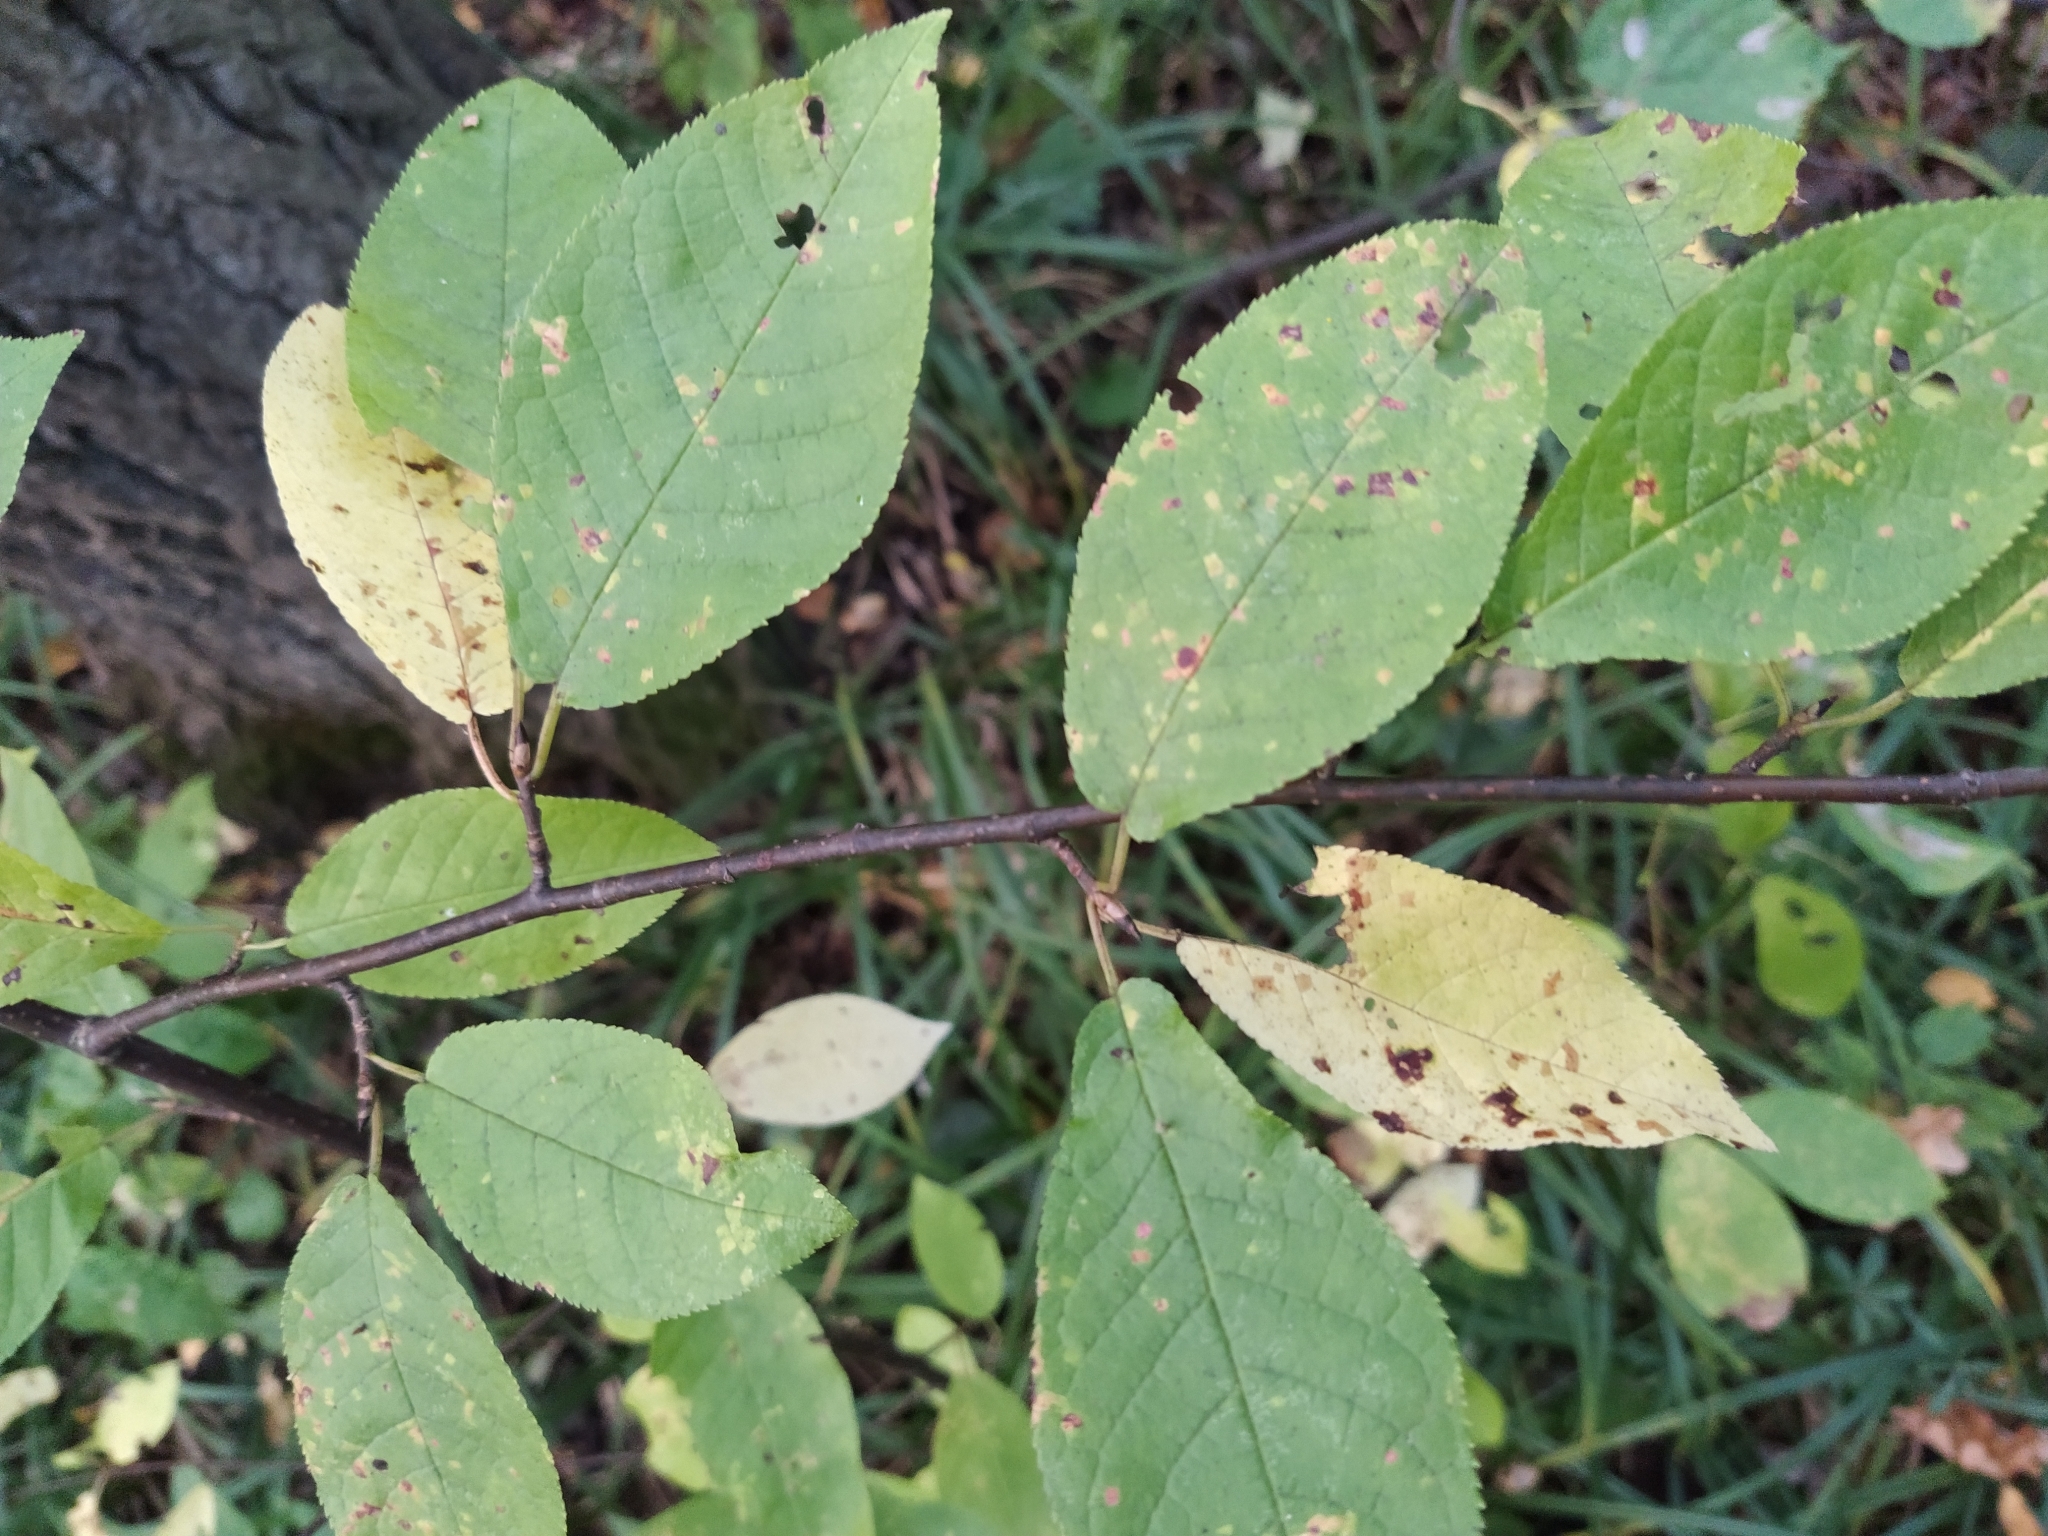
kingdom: Plantae
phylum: Tracheophyta
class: Magnoliopsida
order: Rosales
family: Rosaceae
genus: Prunus
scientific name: Prunus padus
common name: Bird cherry
